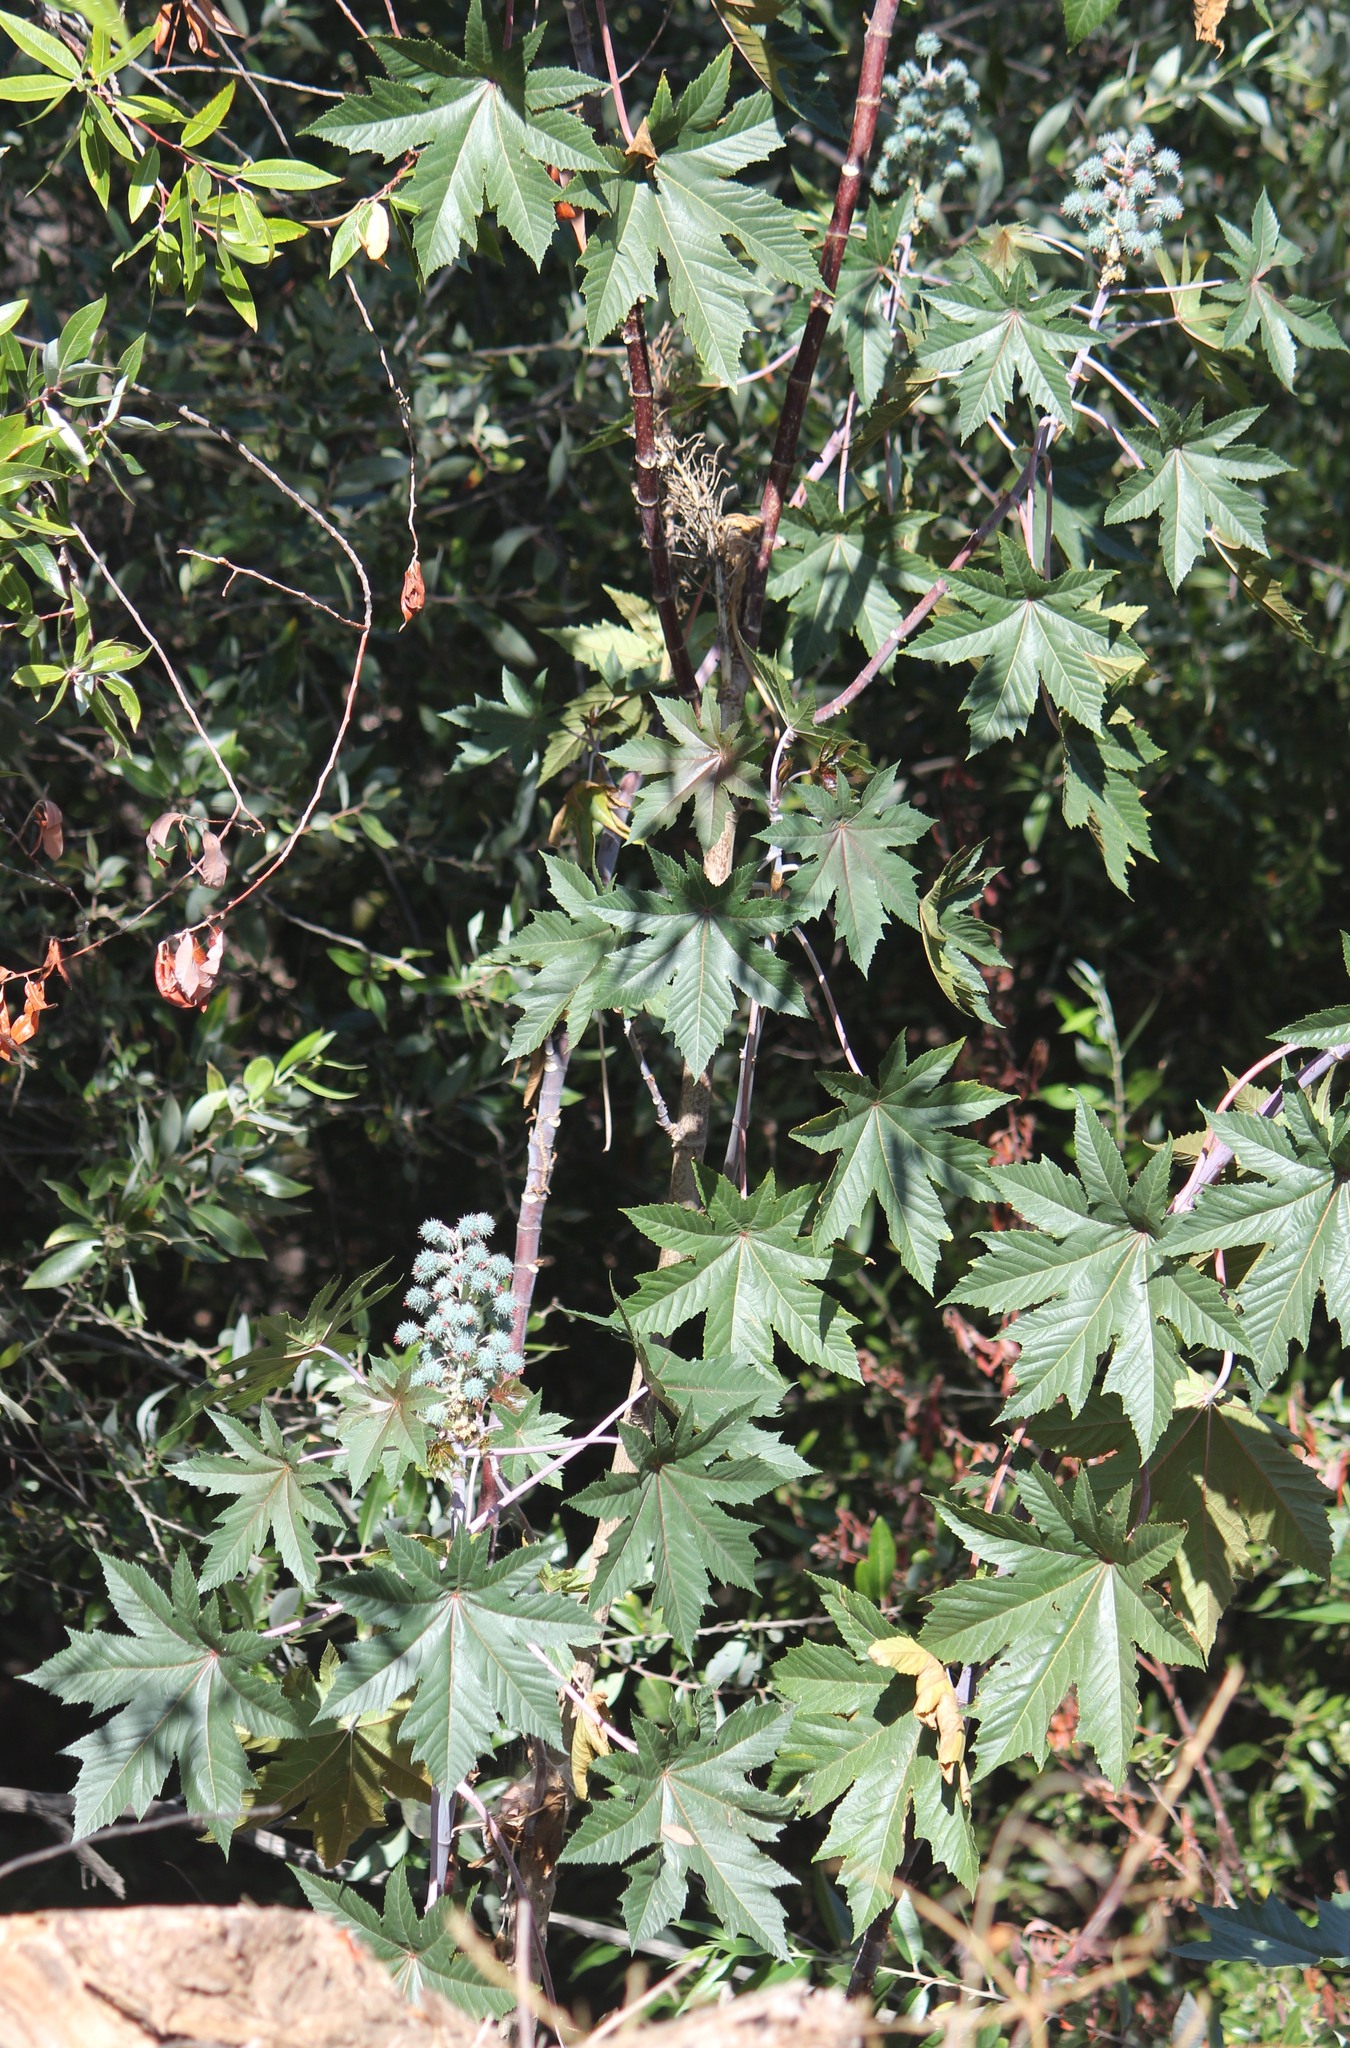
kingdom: Plantae
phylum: Tracheophyta
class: Magnoliopsida
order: Malpighiales
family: Euphorbiaceae
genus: Ricinus
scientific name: Ricinus communis
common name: Castor-oil-plant
